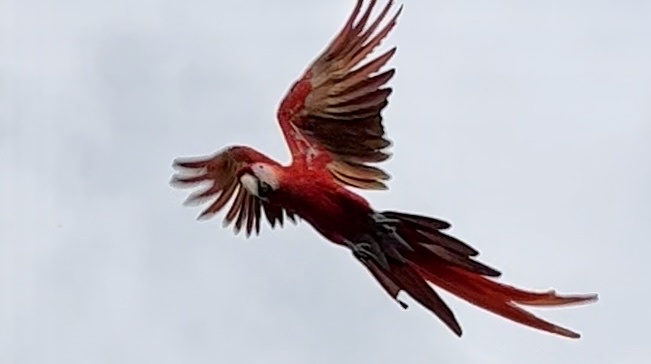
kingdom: Animalia
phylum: Chordata
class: Aves
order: Psittaciformes
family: Psittacidae
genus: Ara
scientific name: Ara macao
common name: Scarlet macaw
